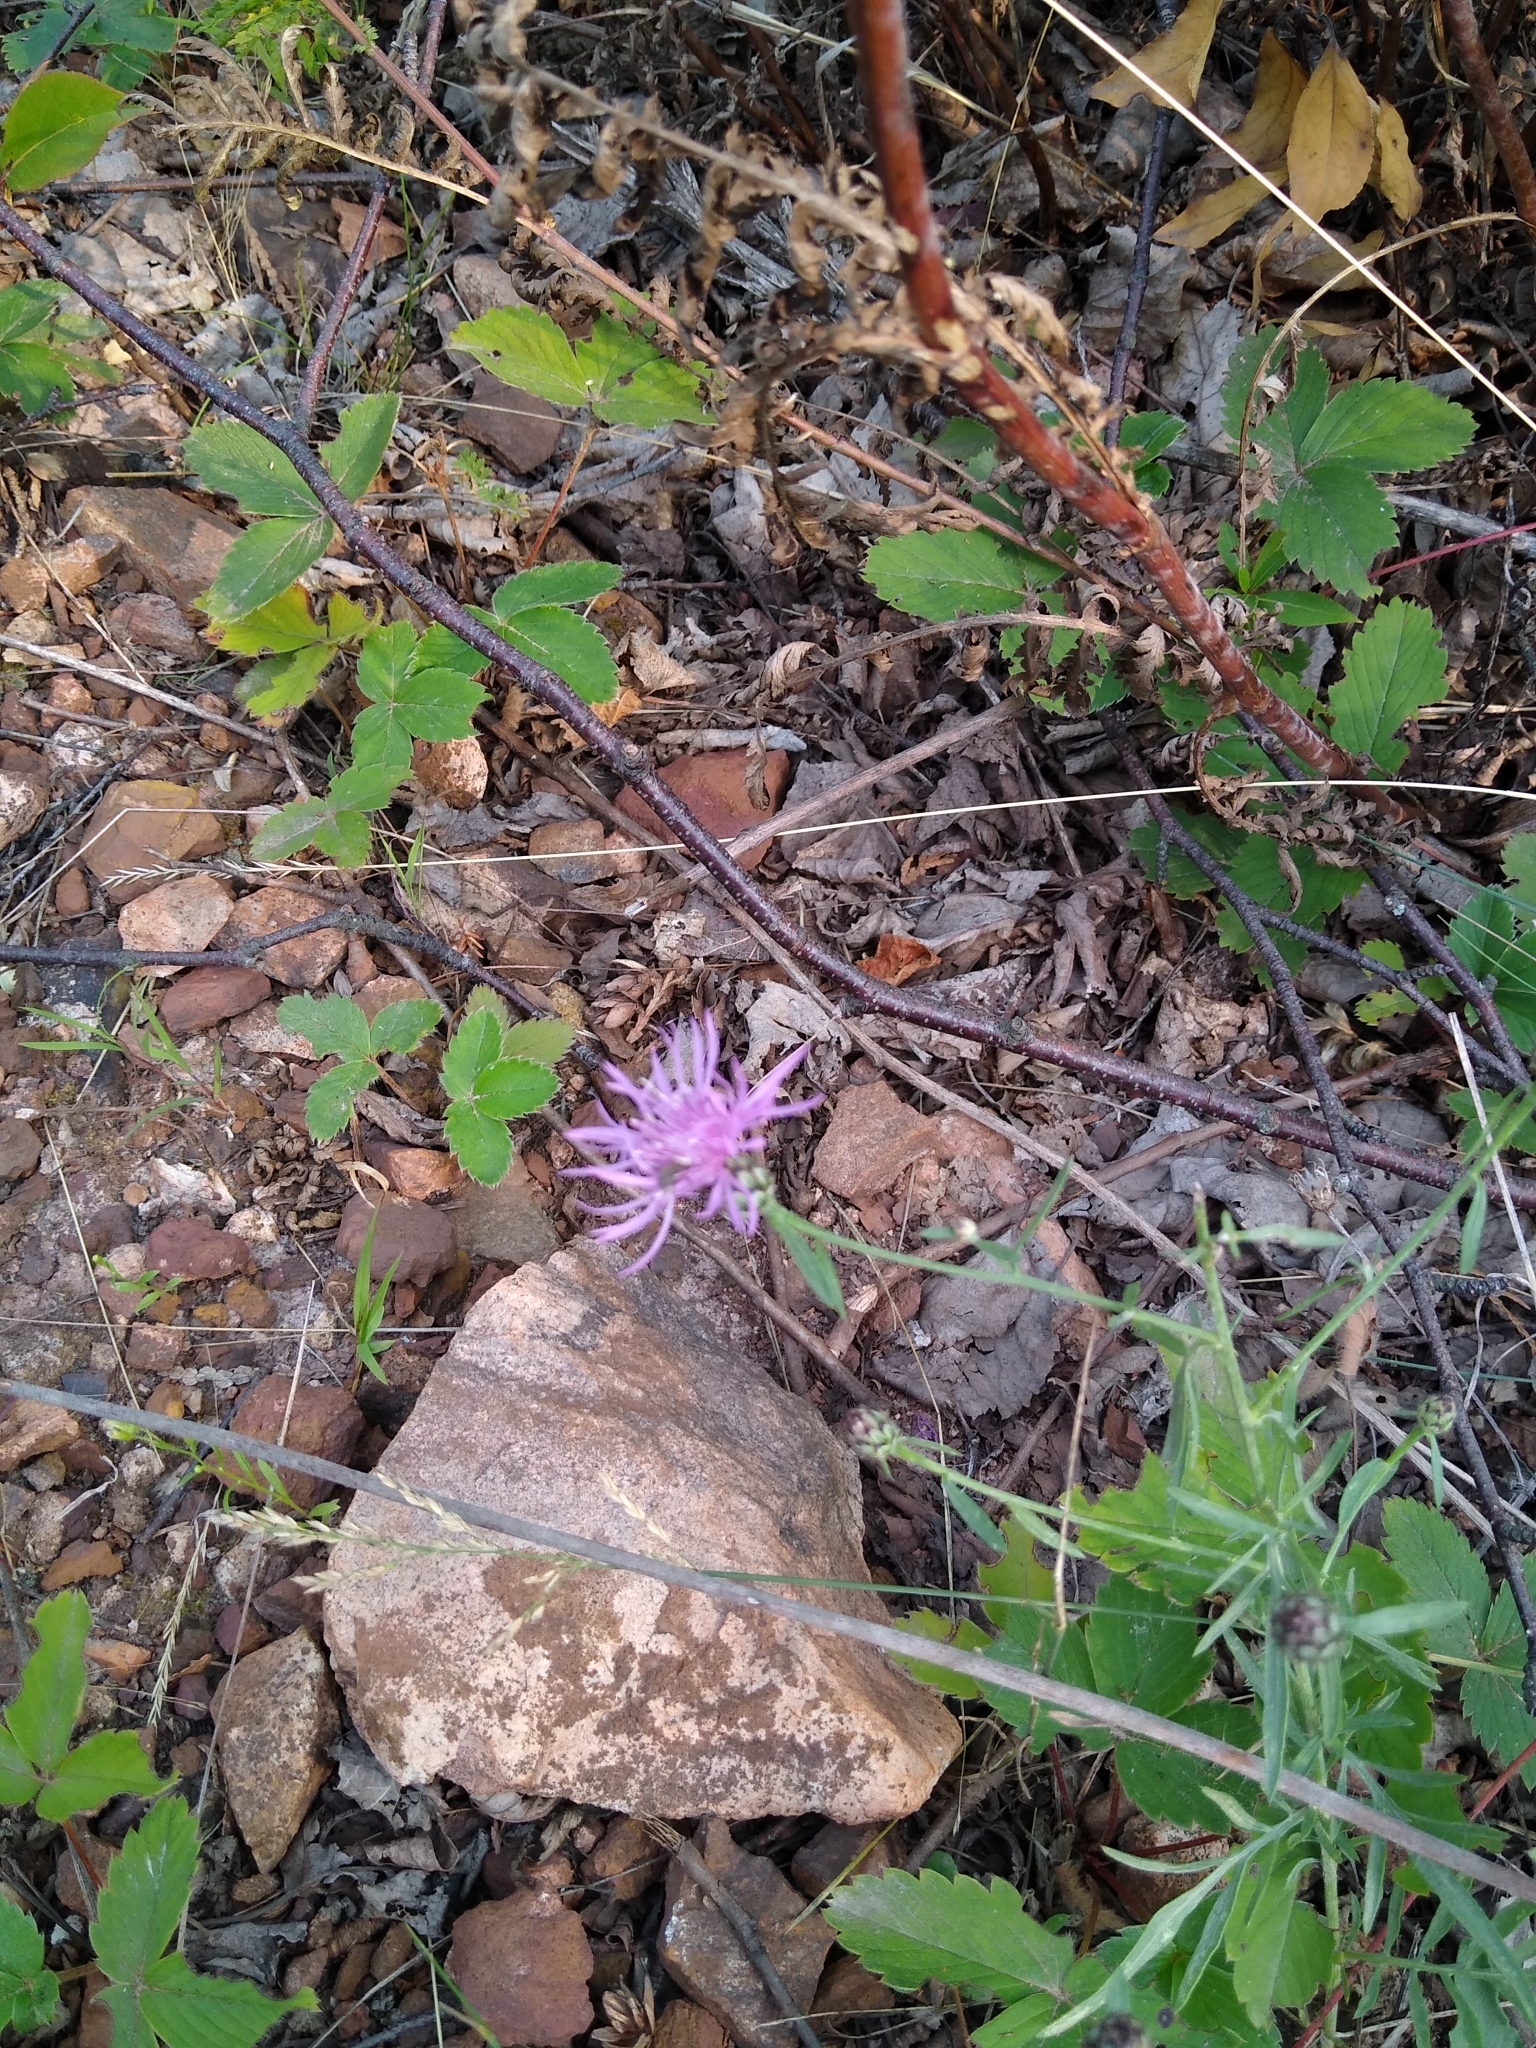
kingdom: Plantae
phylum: Tracheophyta
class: Magnoliopsida
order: Asterales
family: Asteraceae
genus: Centaurea
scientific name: Centaurea stoebe
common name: Spotted knapweed
